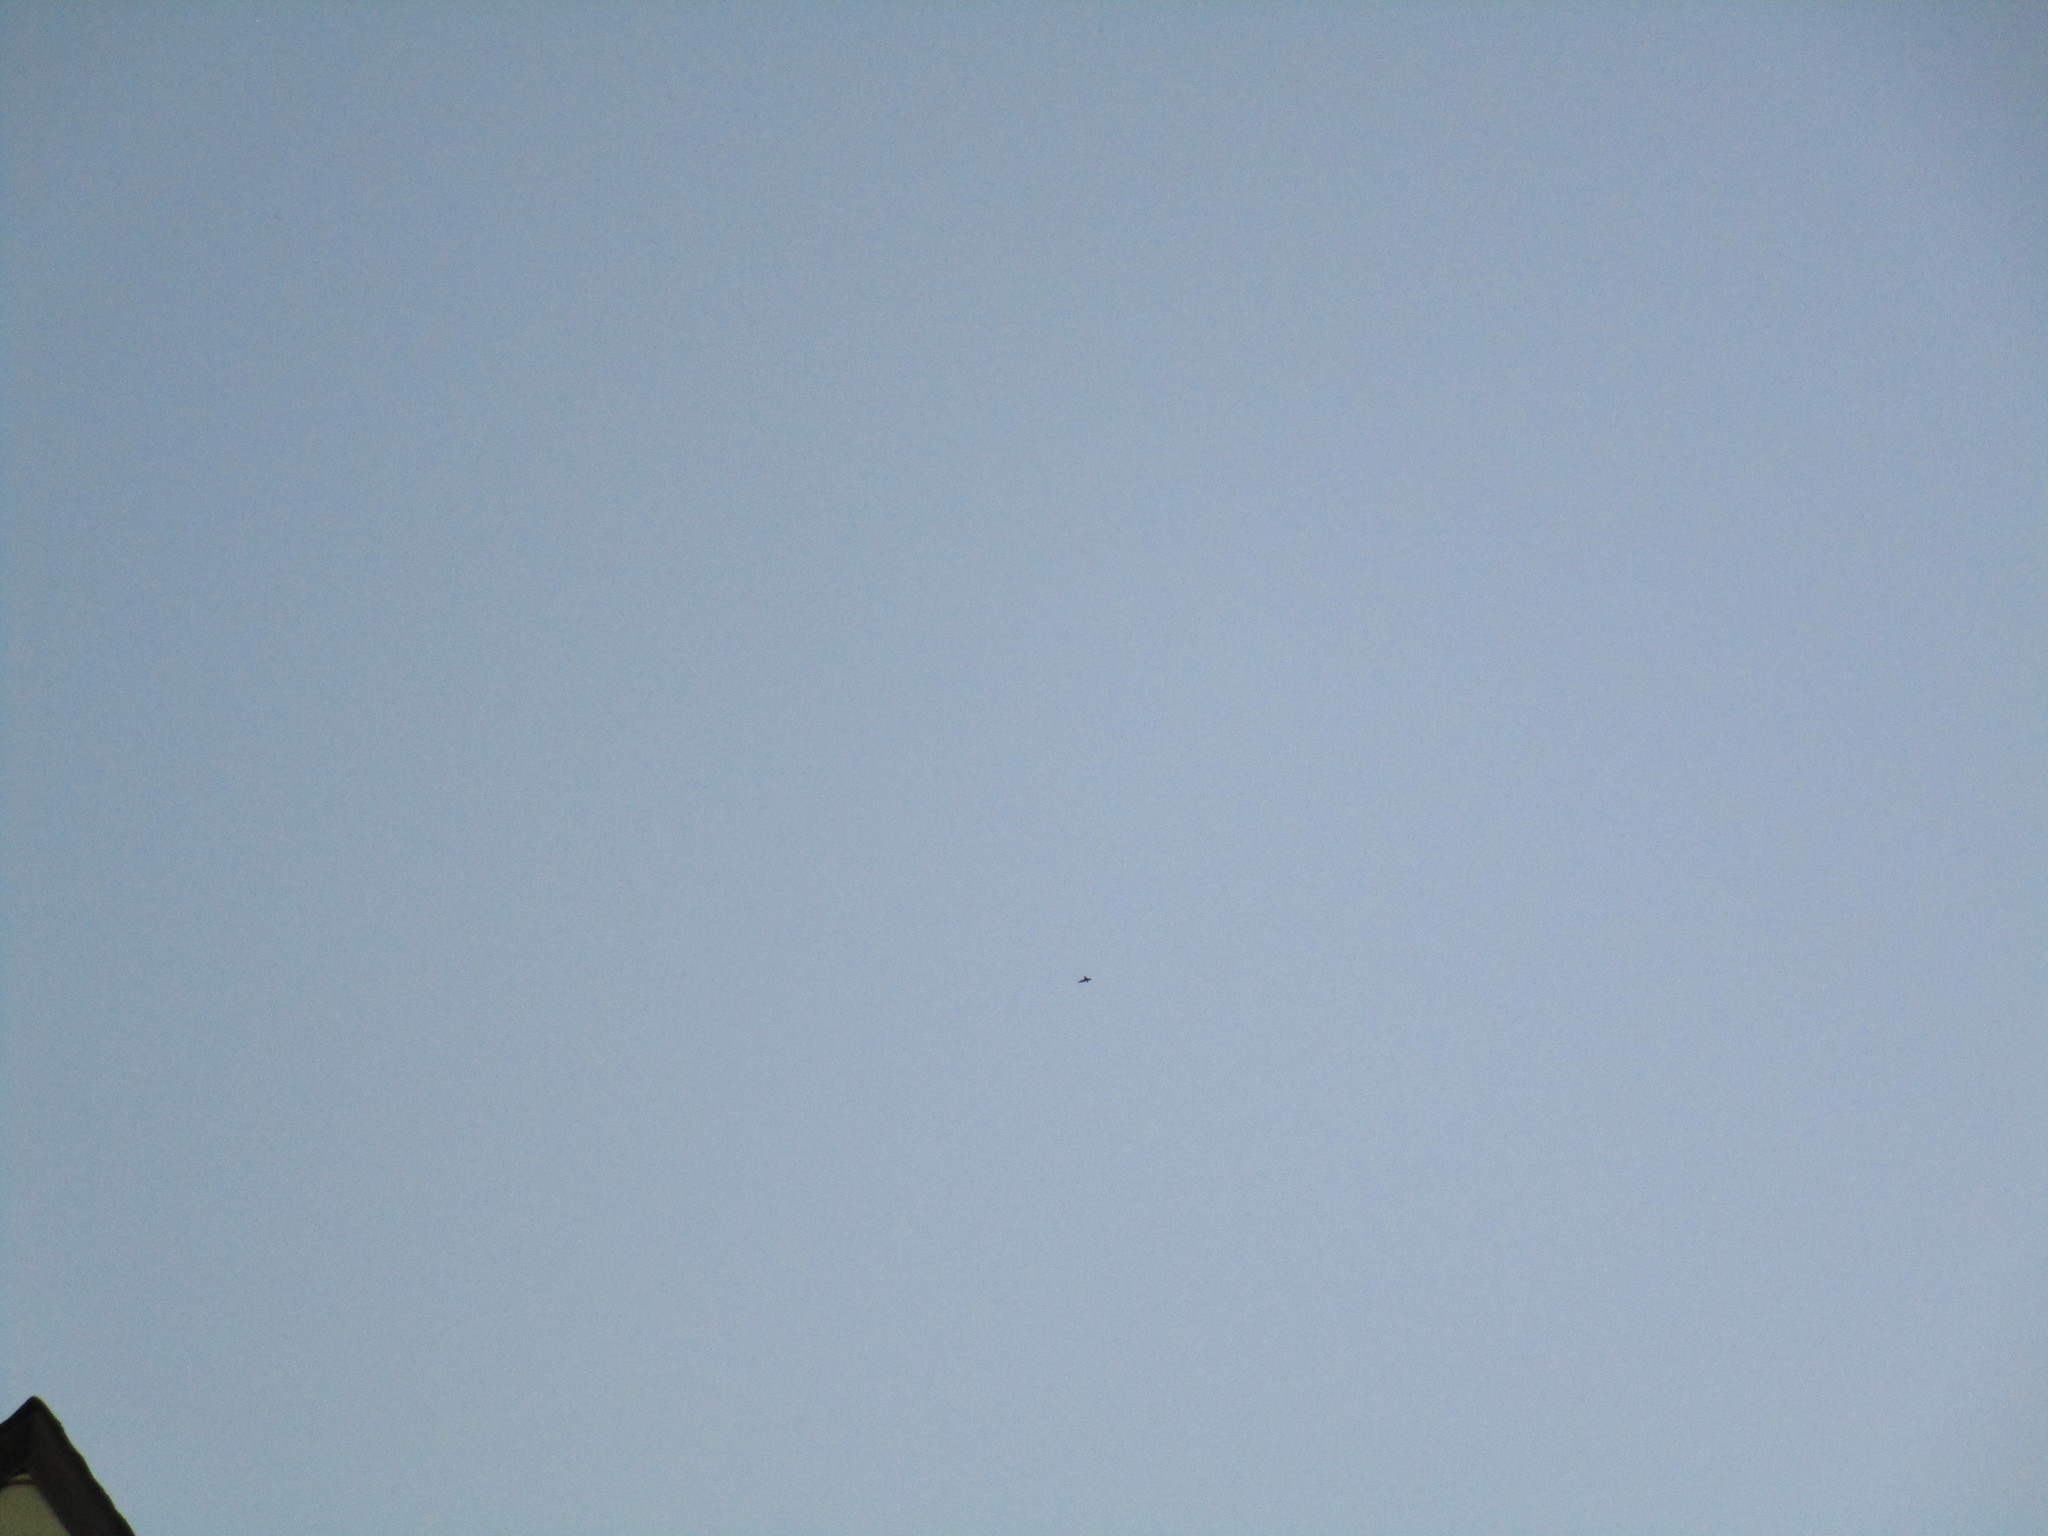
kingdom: Animalia
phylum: Chordata
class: Aves
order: Apodiformes
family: Apodidae
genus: Chaetura
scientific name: Chaetura pelagica
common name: Chimney swift
